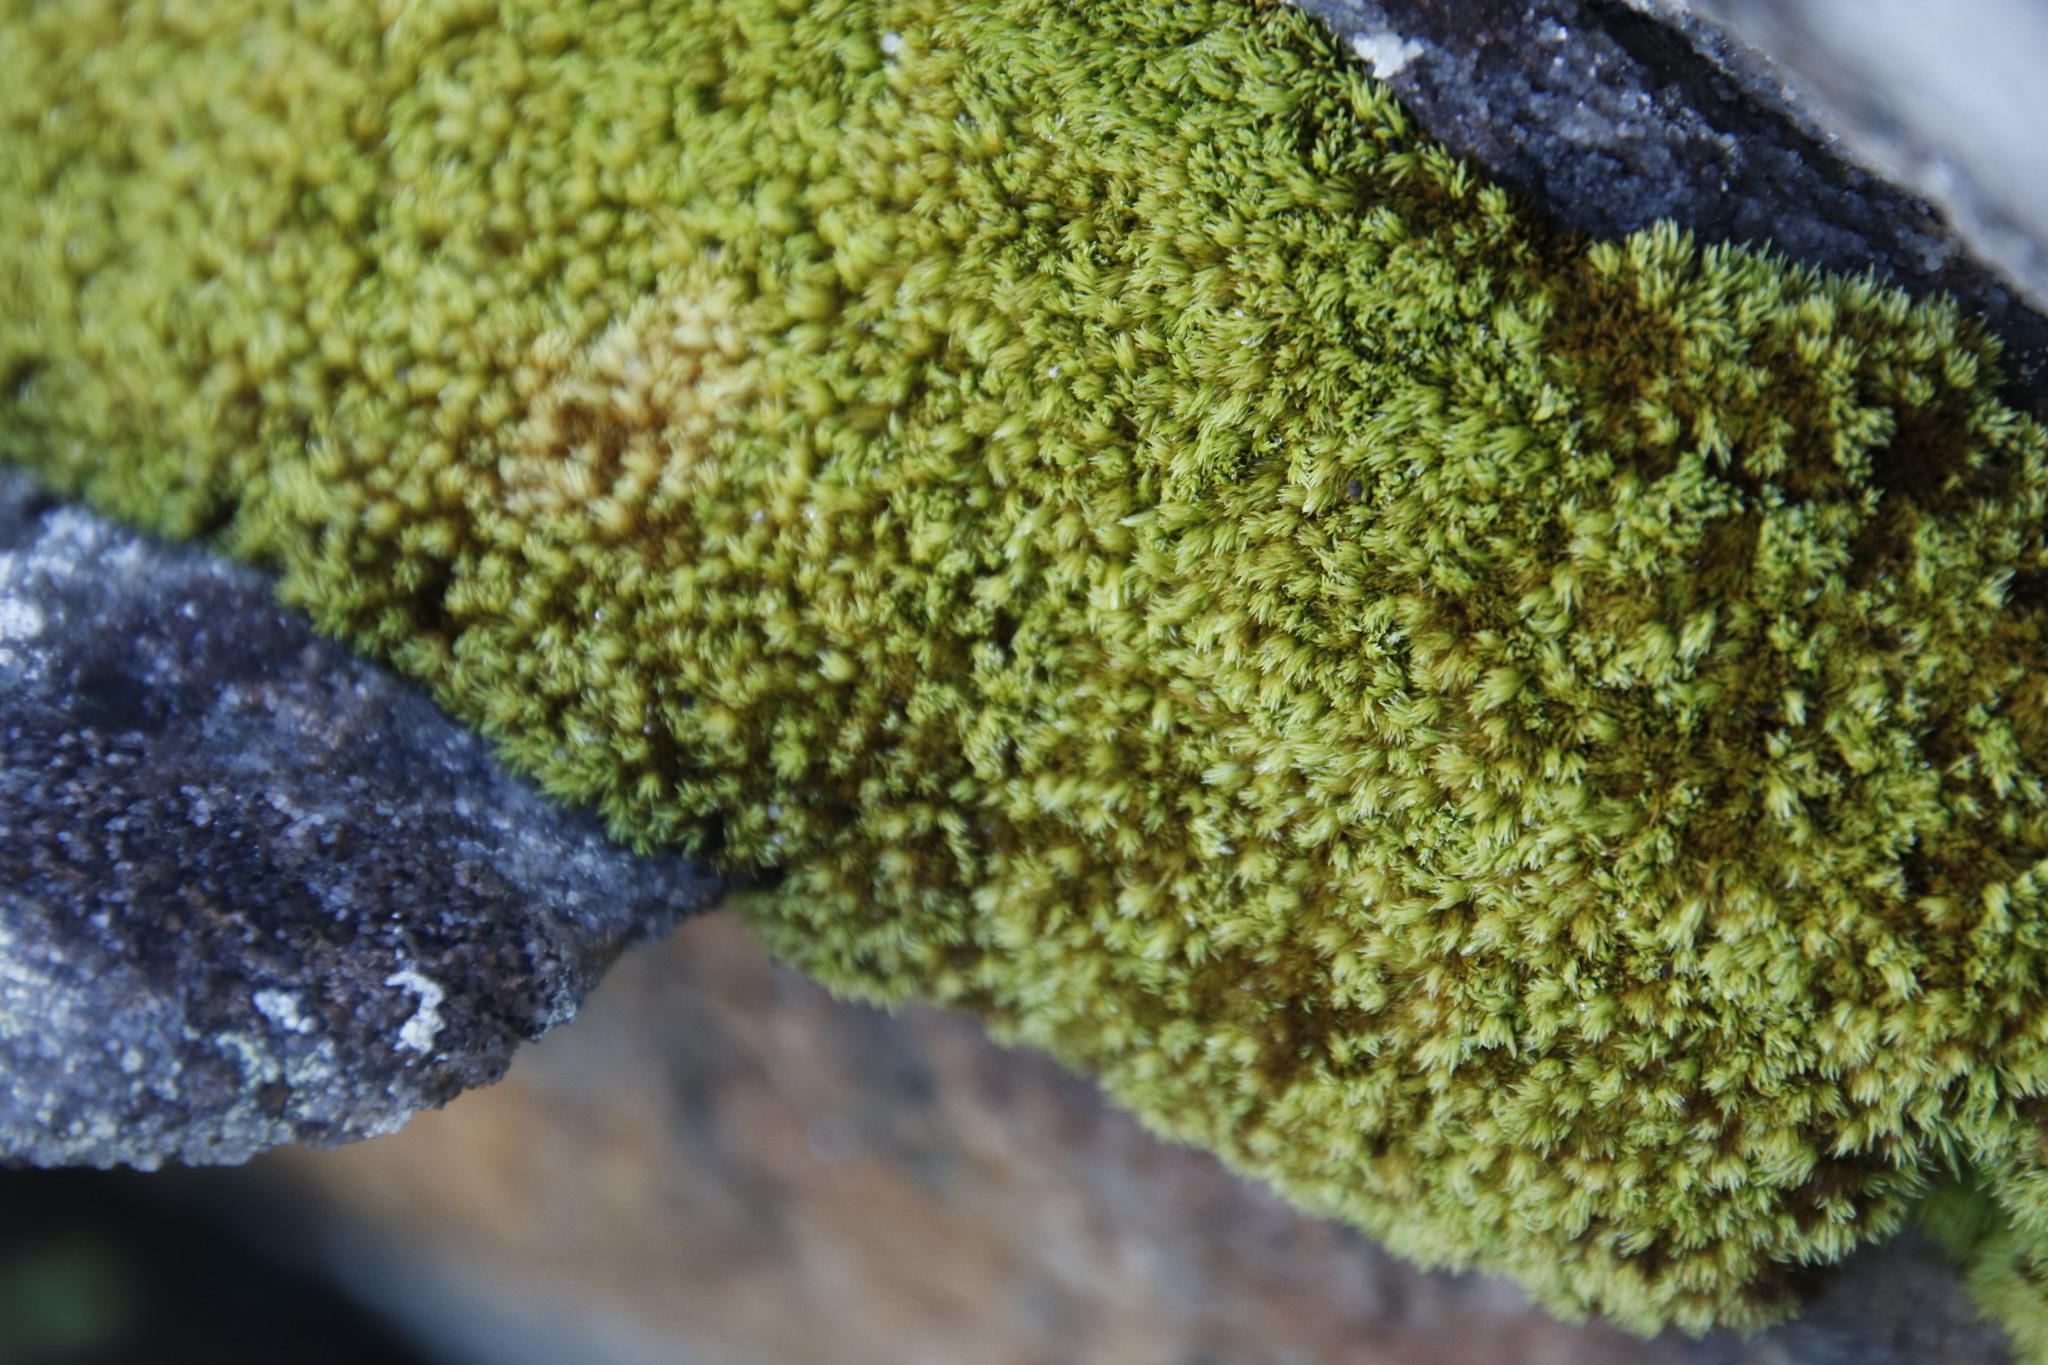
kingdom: Plantae
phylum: Bryophyta
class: Bryopsida
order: Dicranales
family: Hypodontiaceae
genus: Hypodontium
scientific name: Hypodontium pomiforme
